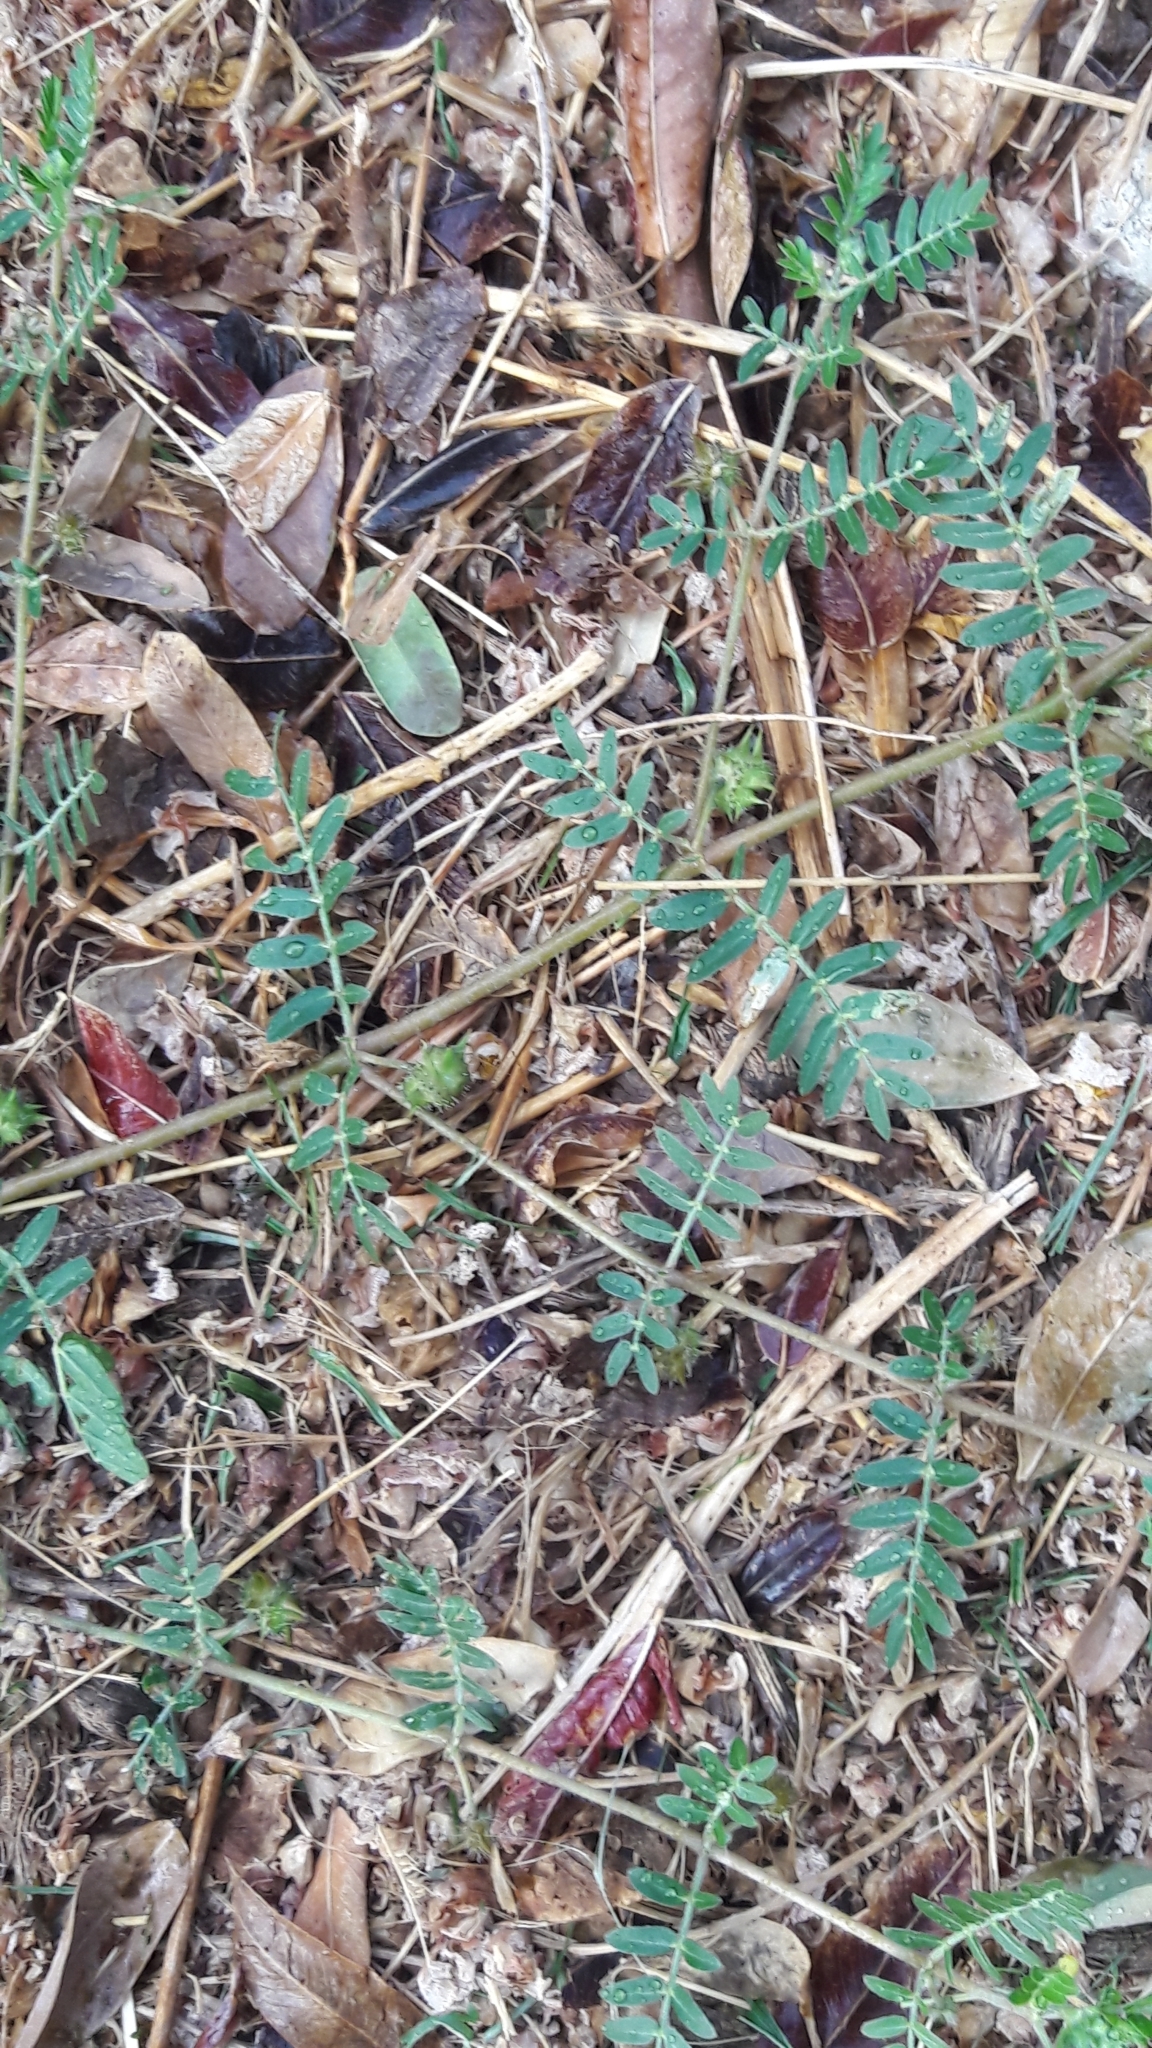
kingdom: Plantae
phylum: Tracheophyta
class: Magnoliopsida
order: Zygophyllales
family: Zygophyllaceae
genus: Tribulus
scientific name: Tribulus terrestris
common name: Puncturevine
